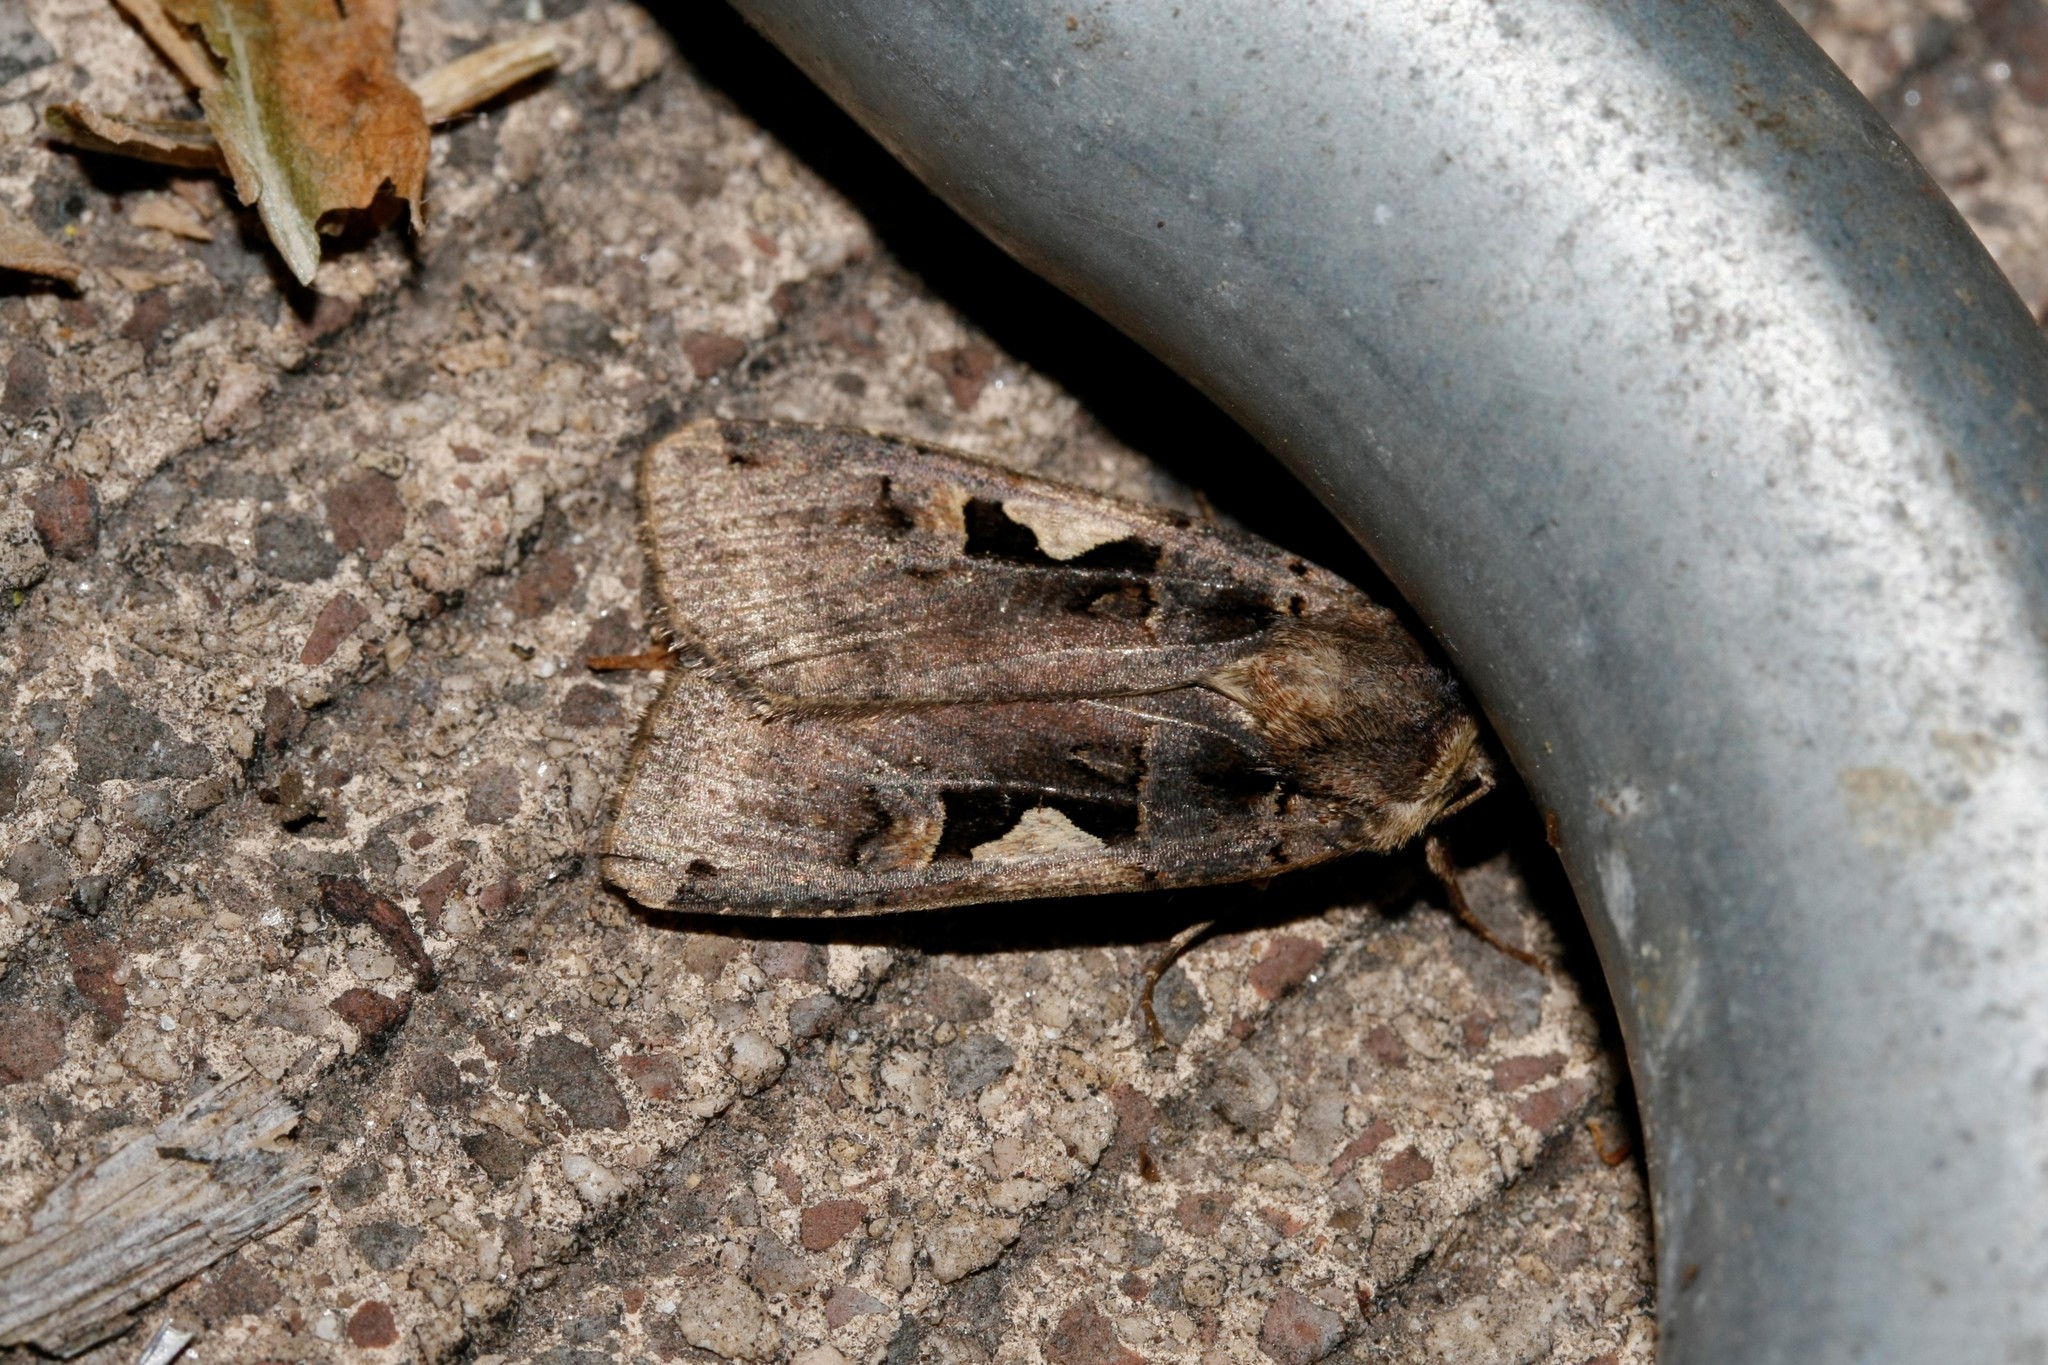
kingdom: Animalia
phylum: Arthropoda
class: Insecta
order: Lepidoptera
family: Noctuidae
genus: Xestia
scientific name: Xestia c-nigrum
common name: Setaceous hebrew character
